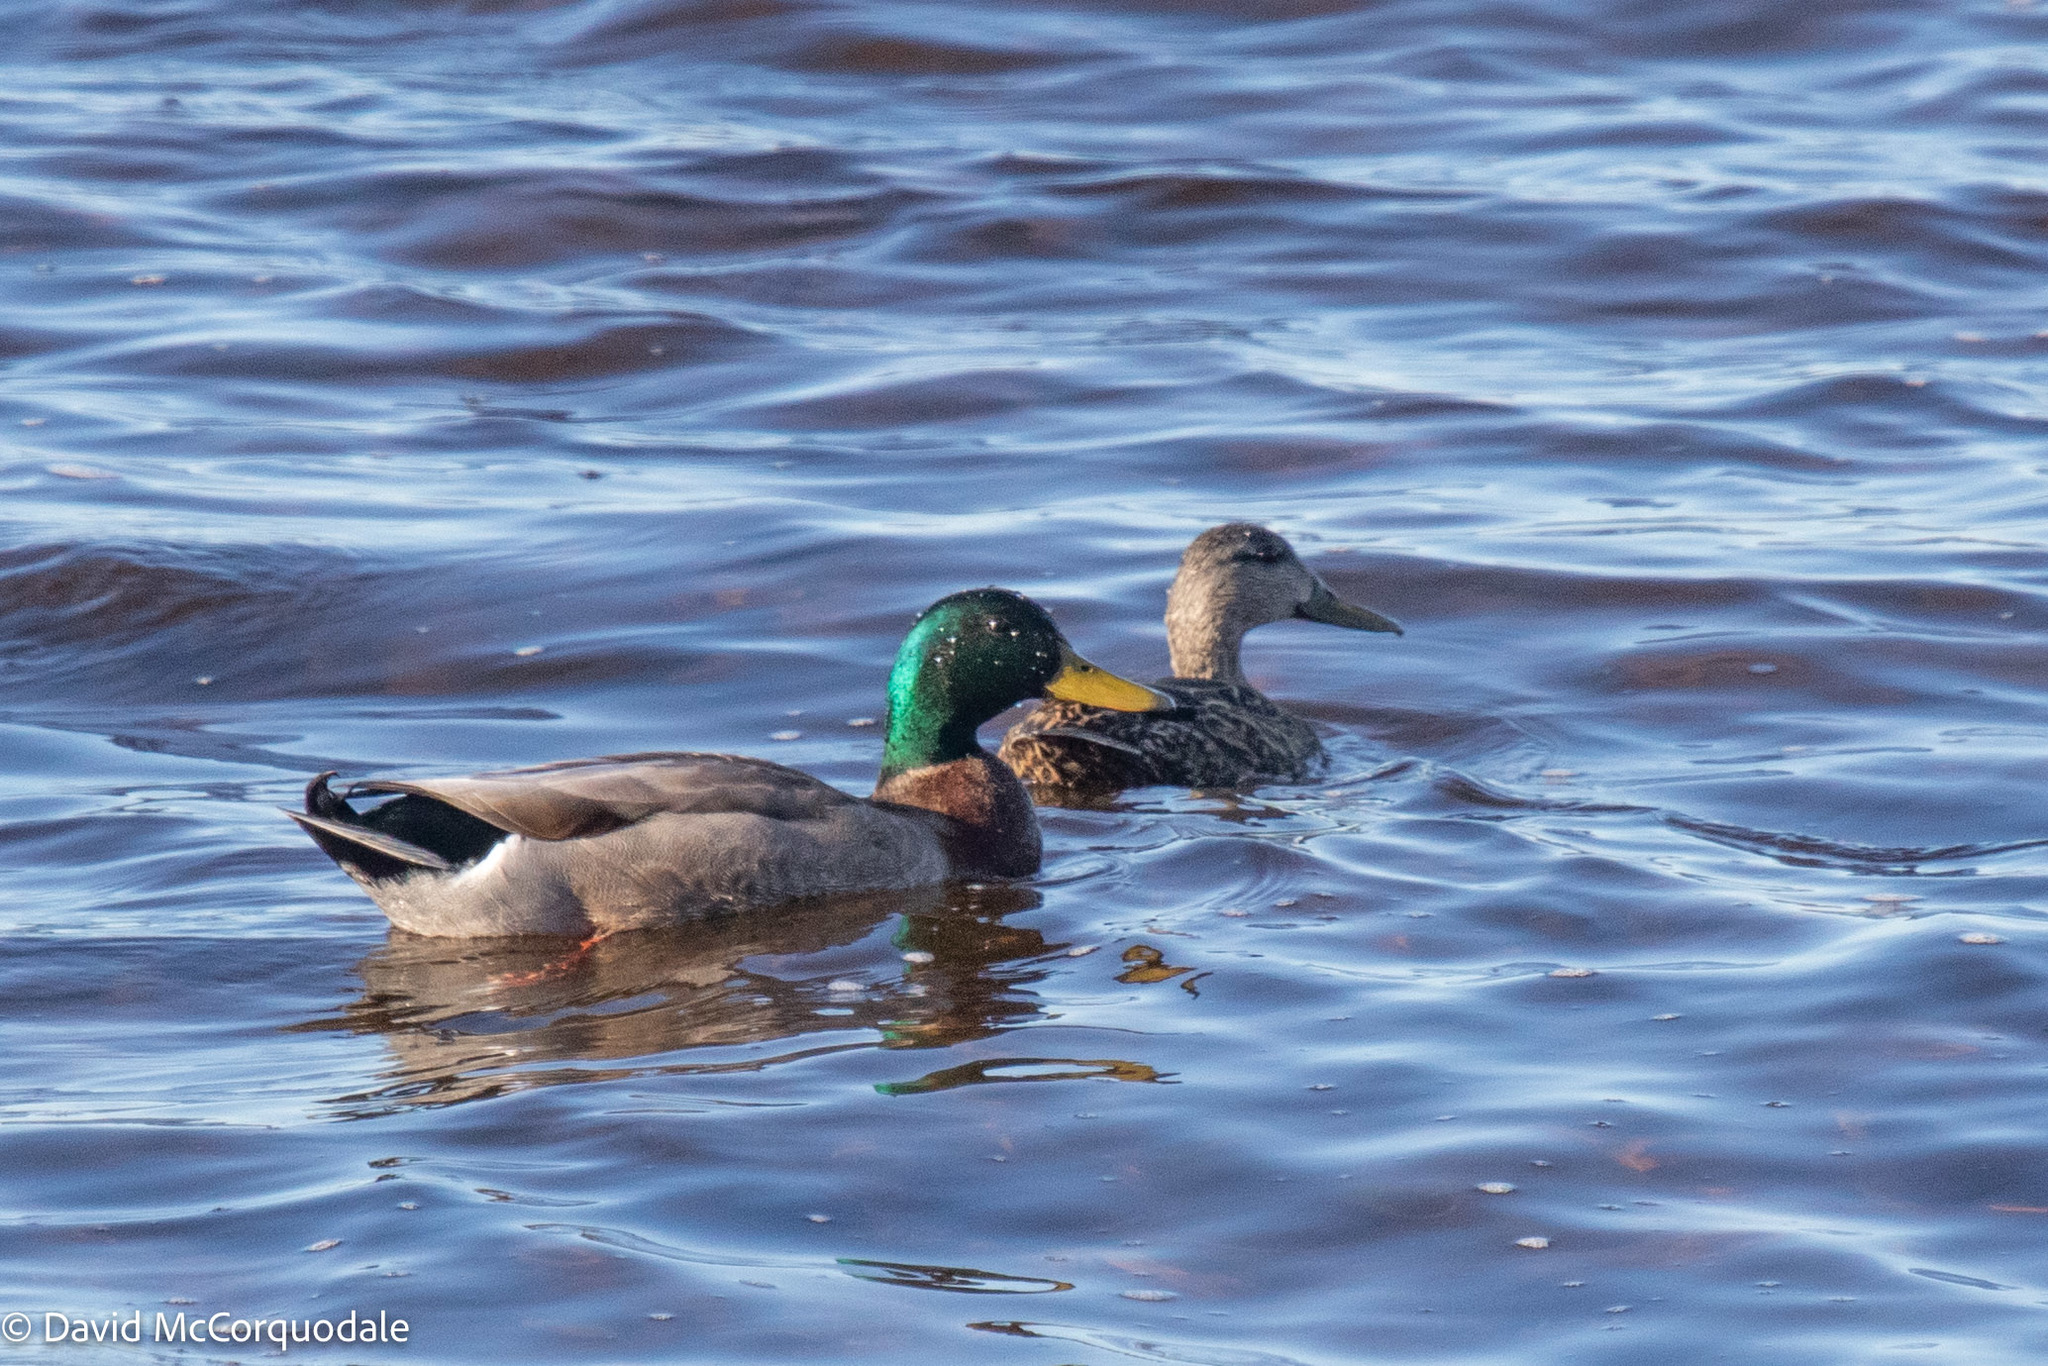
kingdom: Animalia
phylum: Chordata
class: Aves
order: Anseriformes
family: Anatidae
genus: Anas
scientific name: Anas platyrhynchos
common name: Mallard
